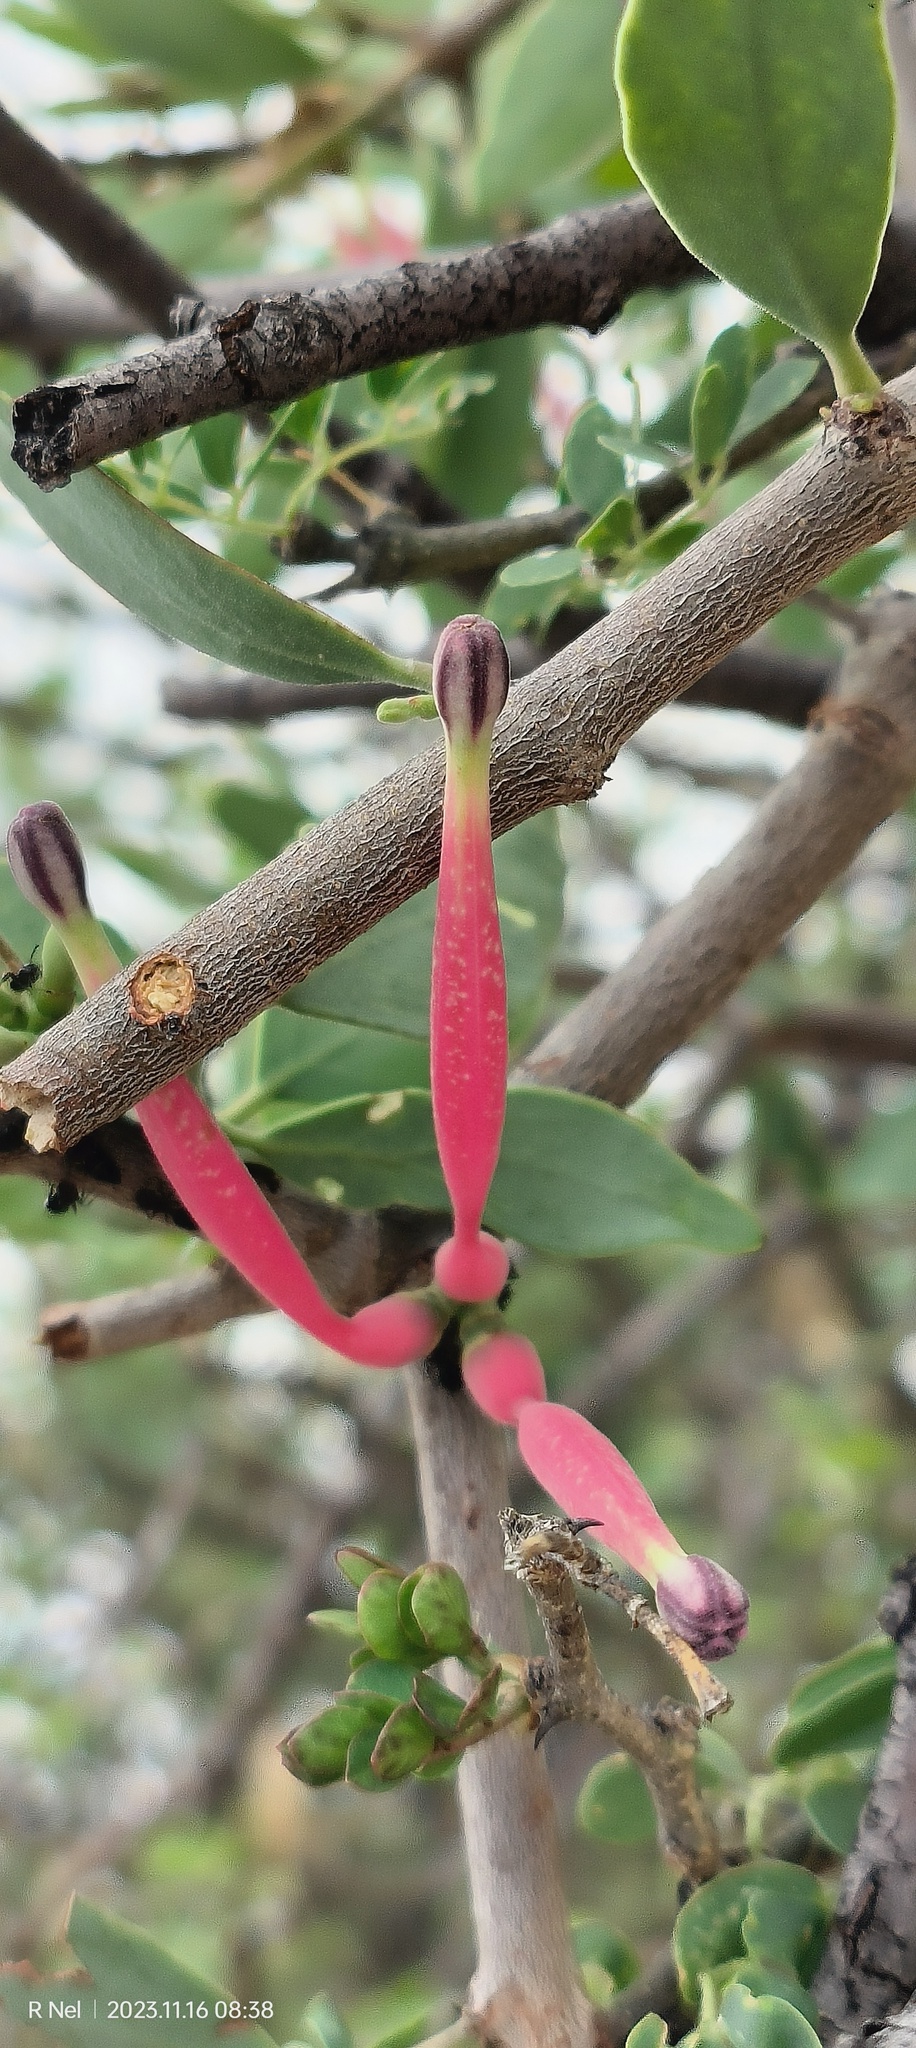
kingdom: Plantae
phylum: Tracheophyta
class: Magnoliopsida
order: Santalales
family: Loranthaceae
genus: Tapinanthus
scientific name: Tapinanthus oleifolius
